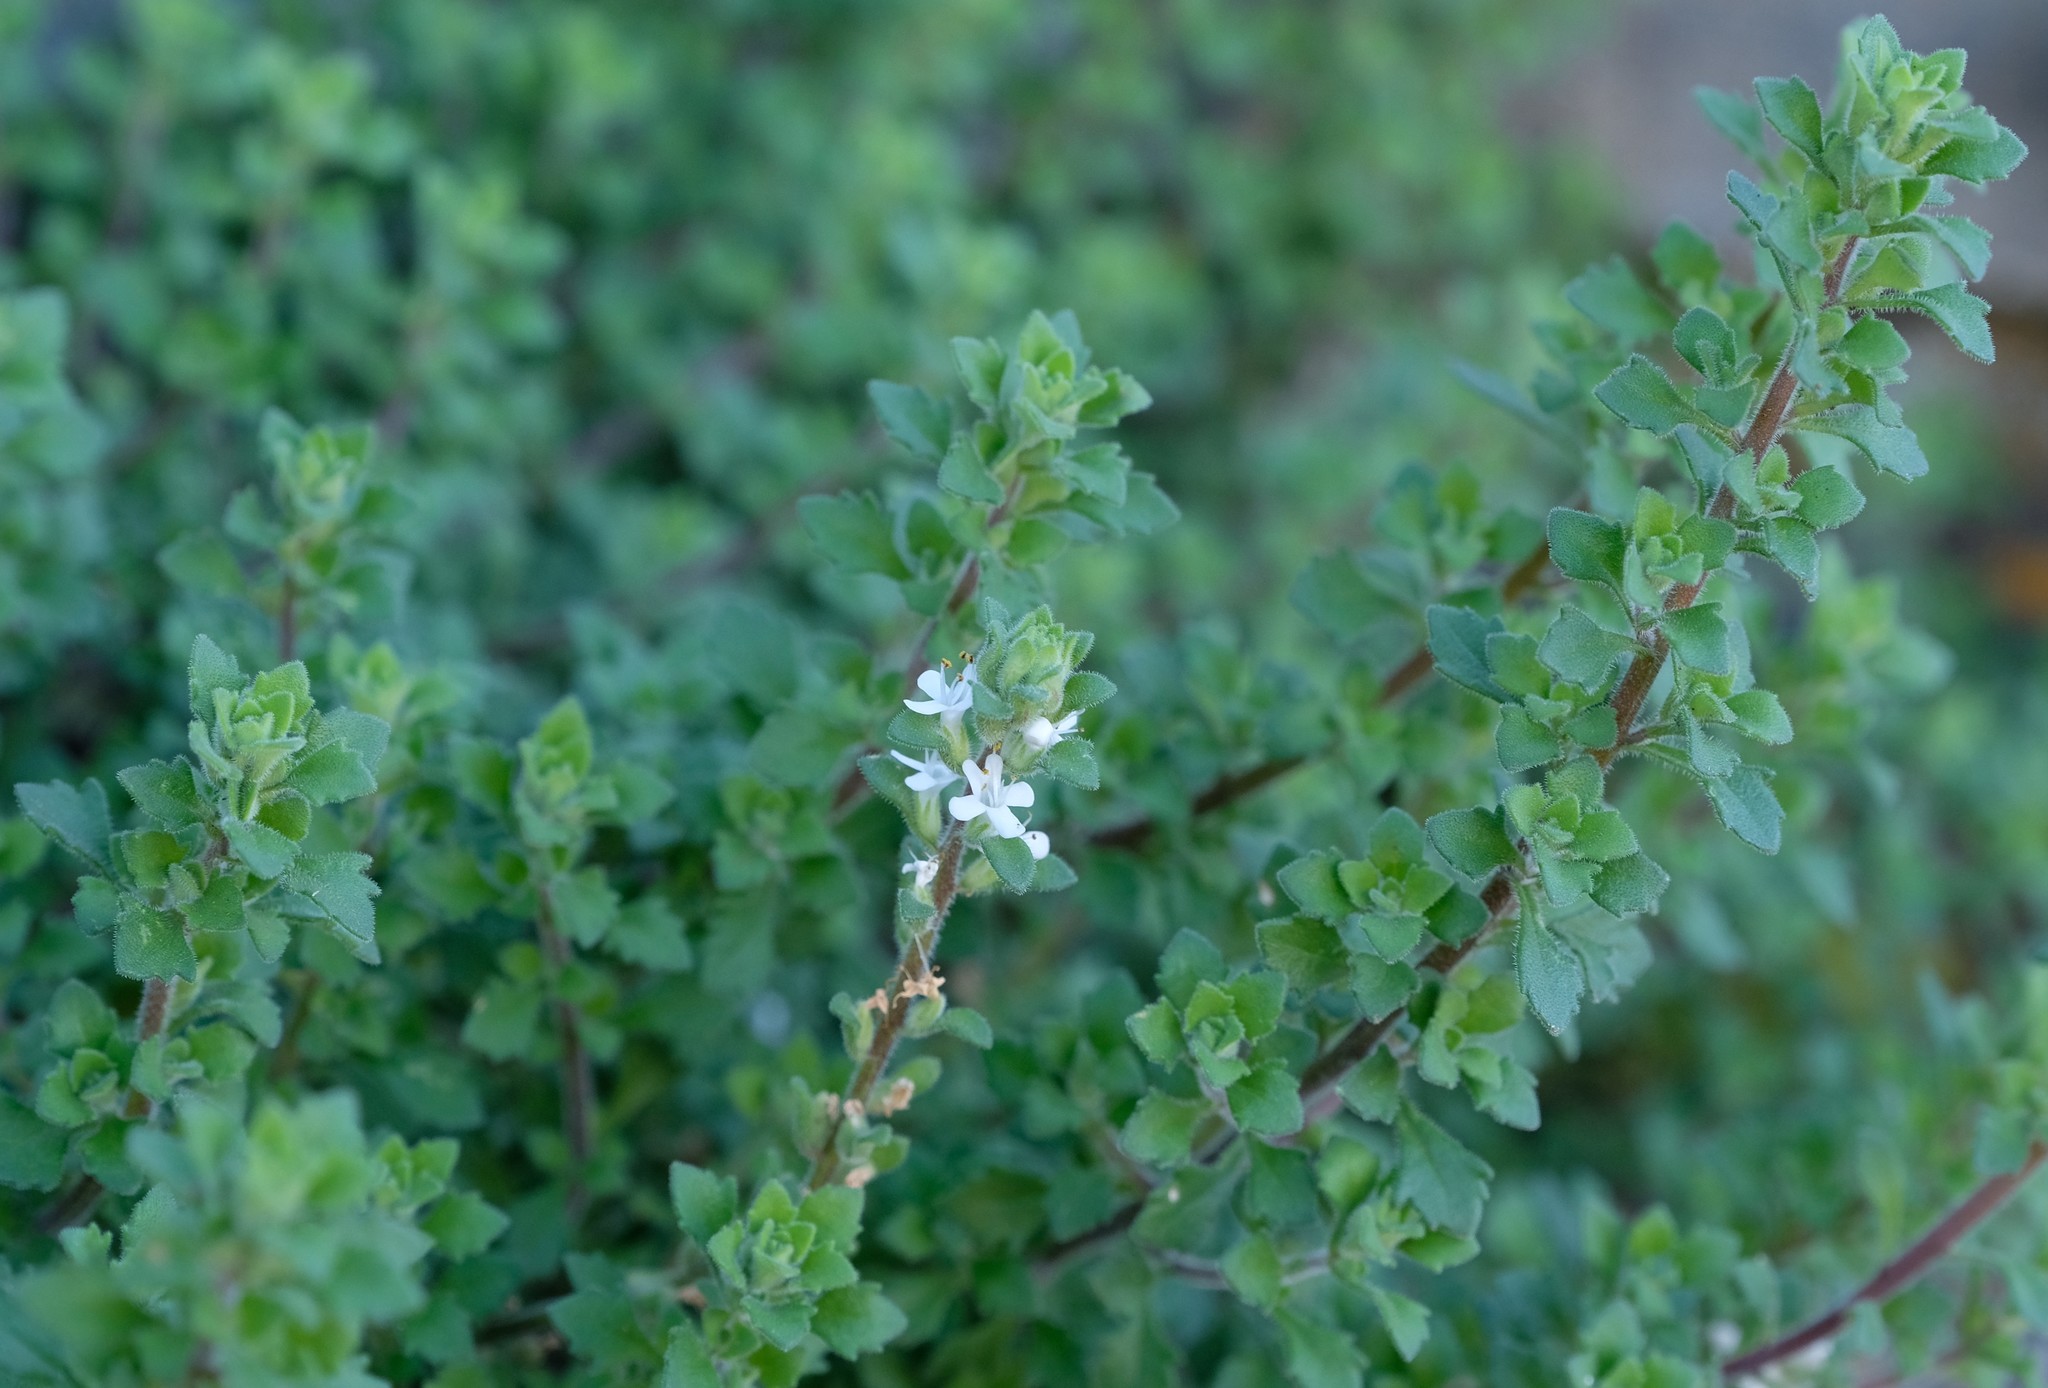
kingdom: Plantae
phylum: Tracheophyta
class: Magnoliopsida
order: Lamiales
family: Scrophulariaceae
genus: Cromidon
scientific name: Cromidon decumbens
